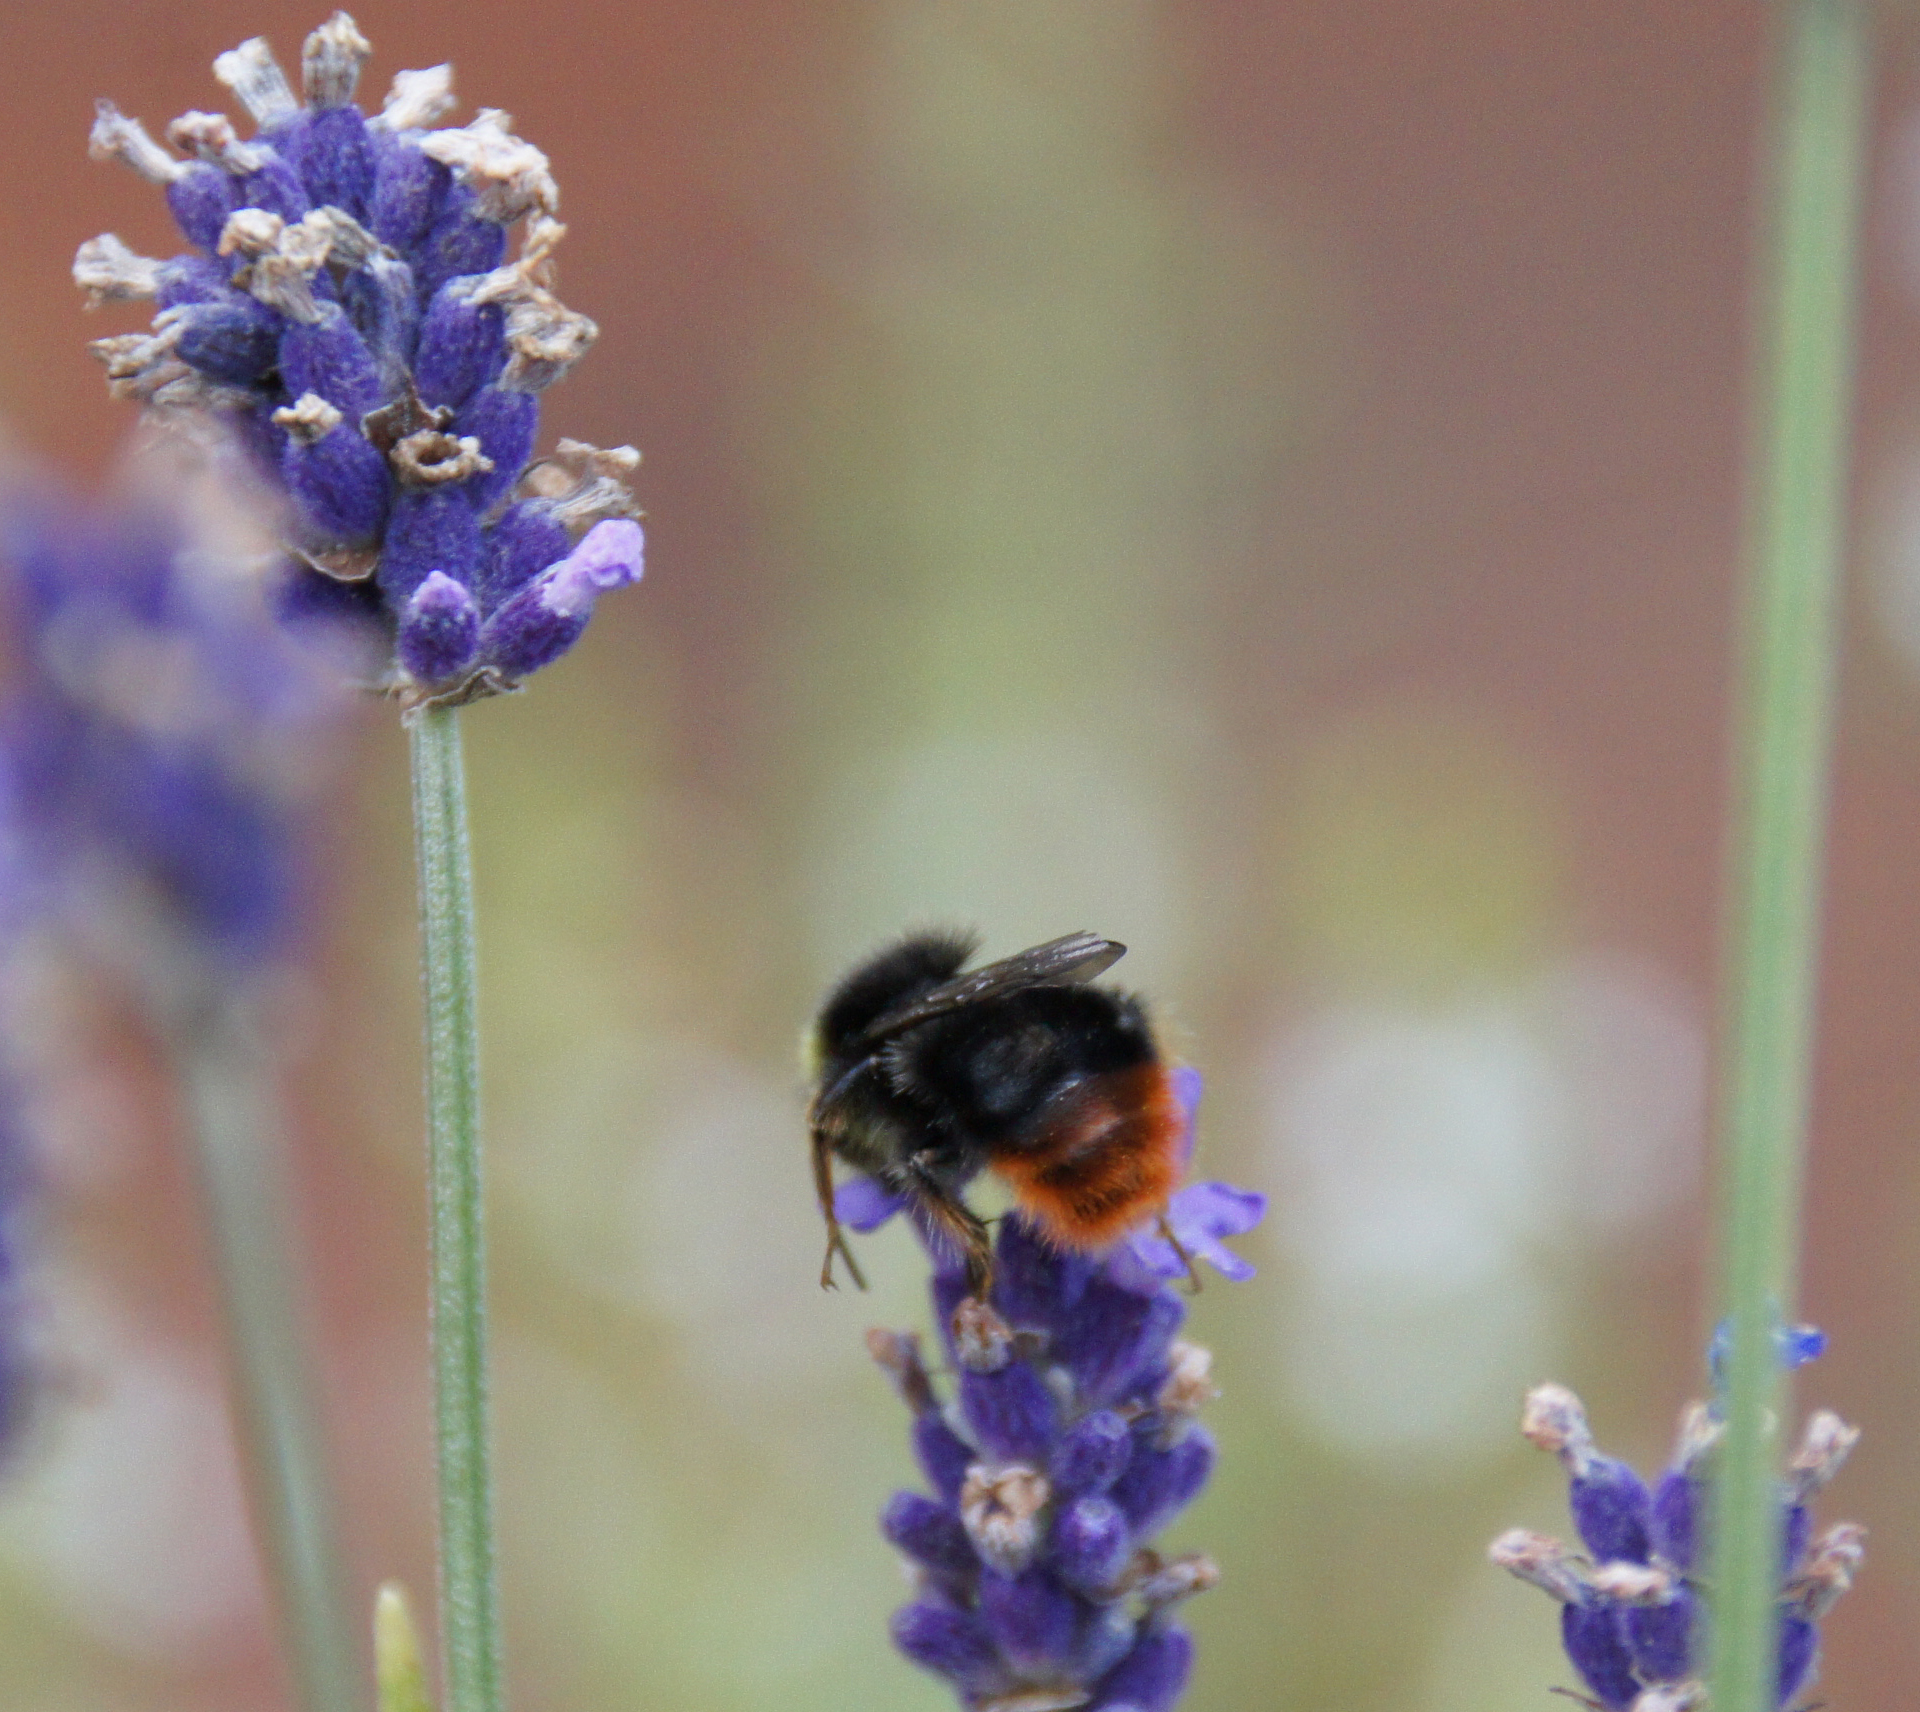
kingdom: Animalia
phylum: Arthropoda
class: Insecta
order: Hymenoptera
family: Apidae
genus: Bombus
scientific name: Bombus lapidarius
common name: Large red-tailed humble-bee
